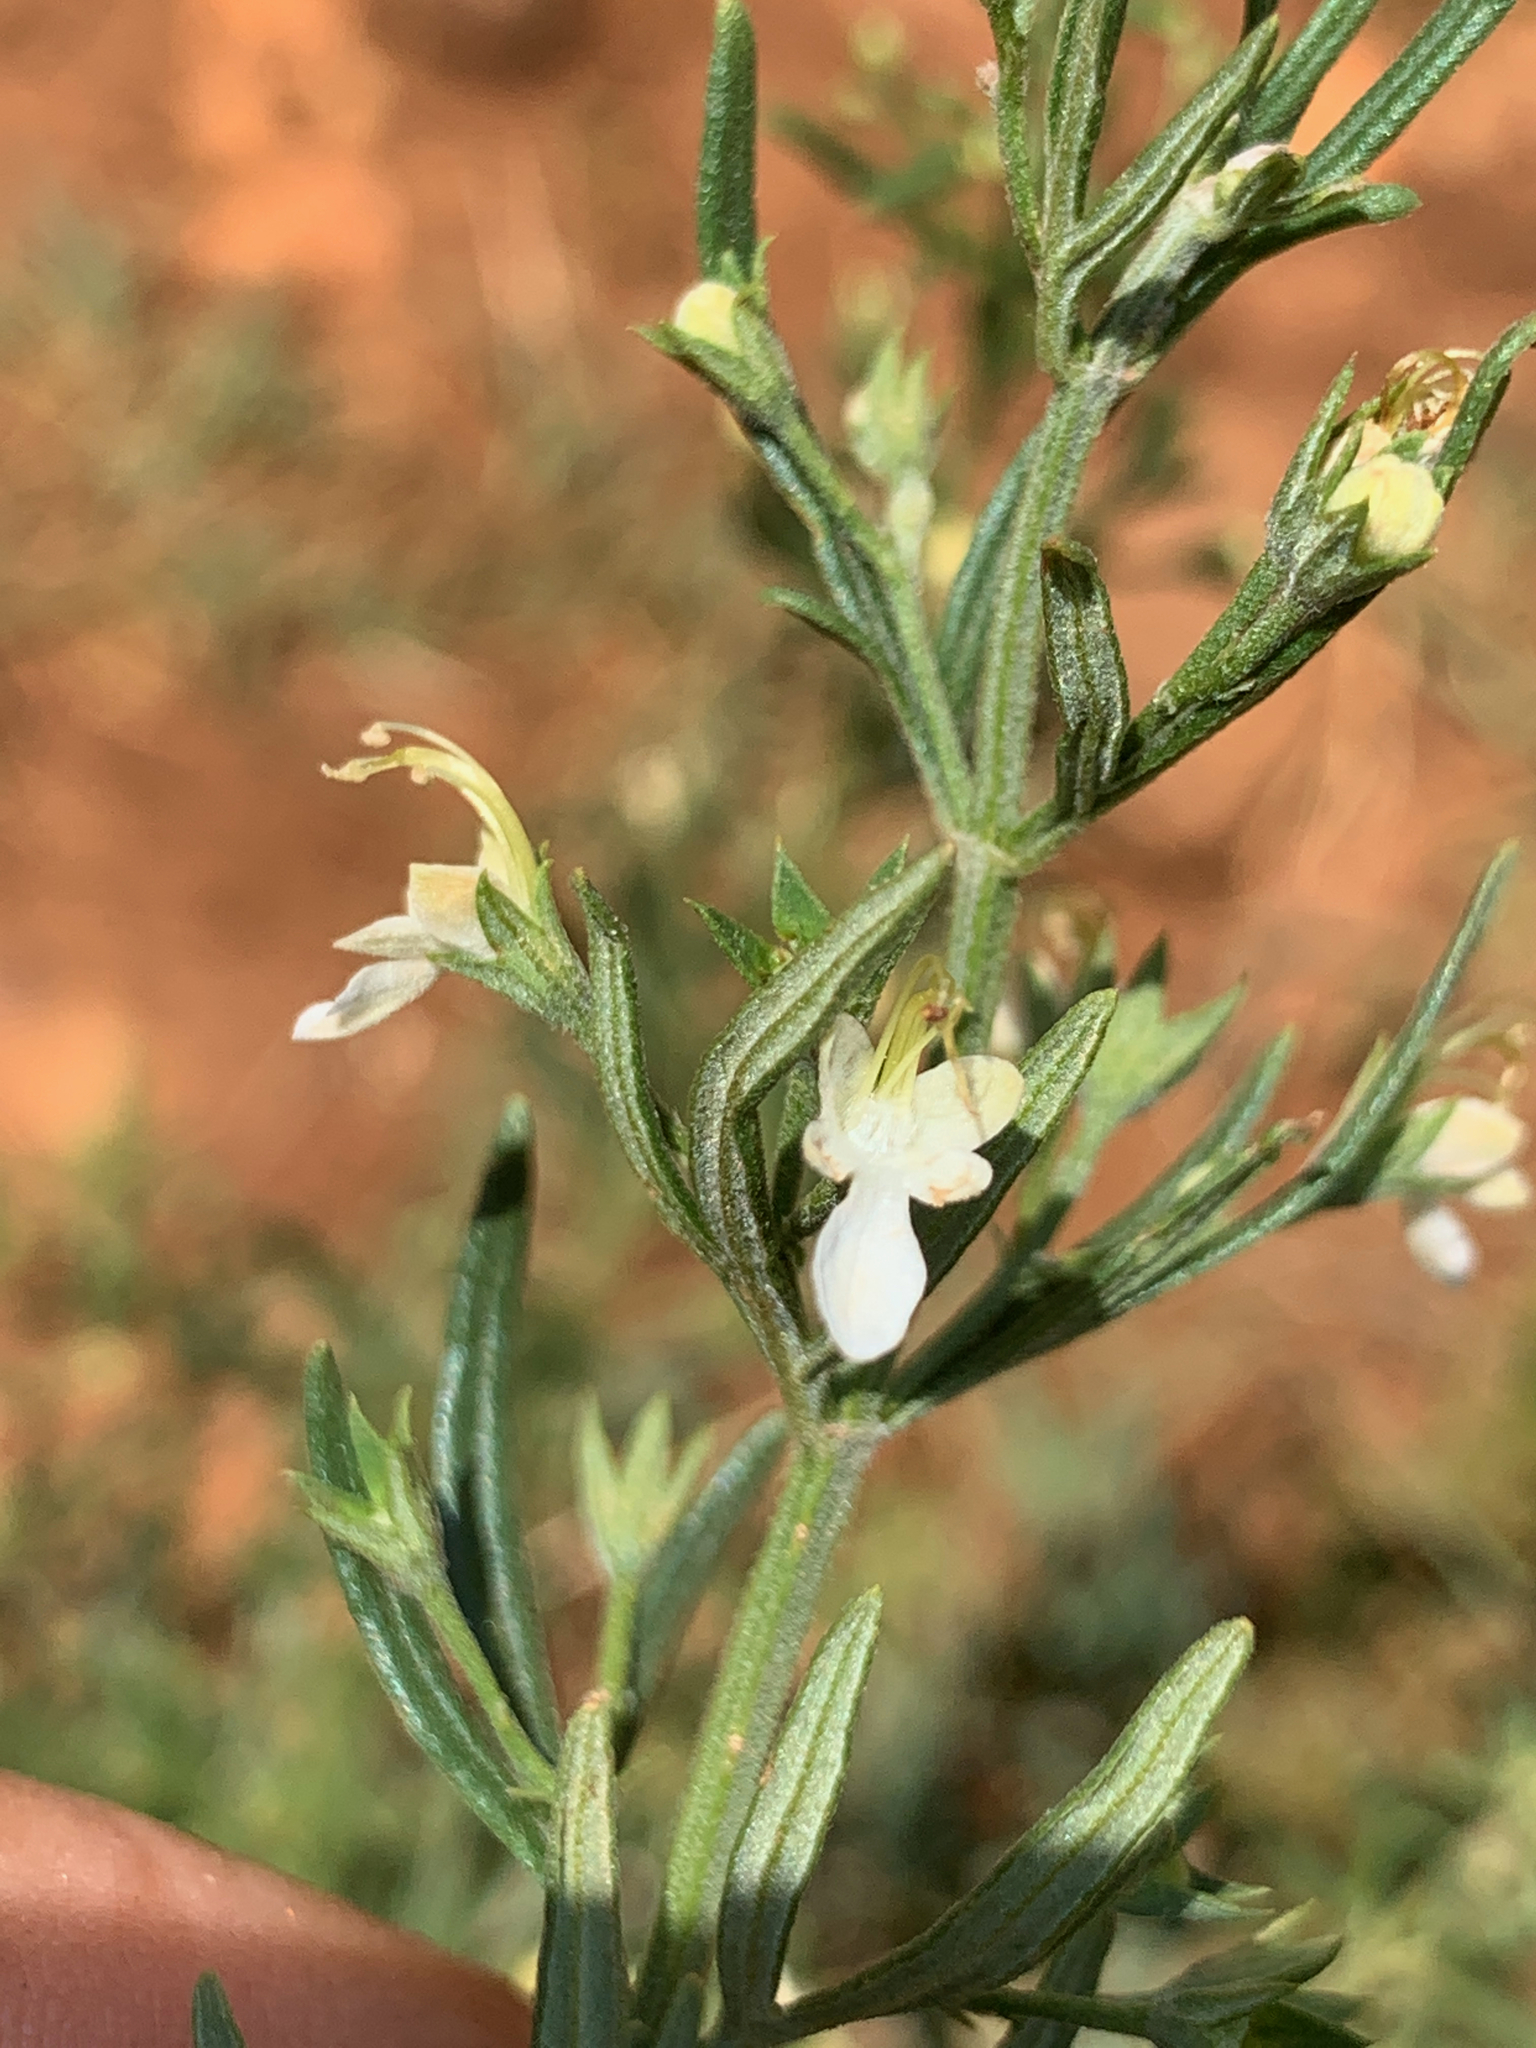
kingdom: Plantae
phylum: Tracheophyta
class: Magnoliopsida
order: Lamiales
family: Lamiaceae
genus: Teucrium
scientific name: Teucrium trifidum
